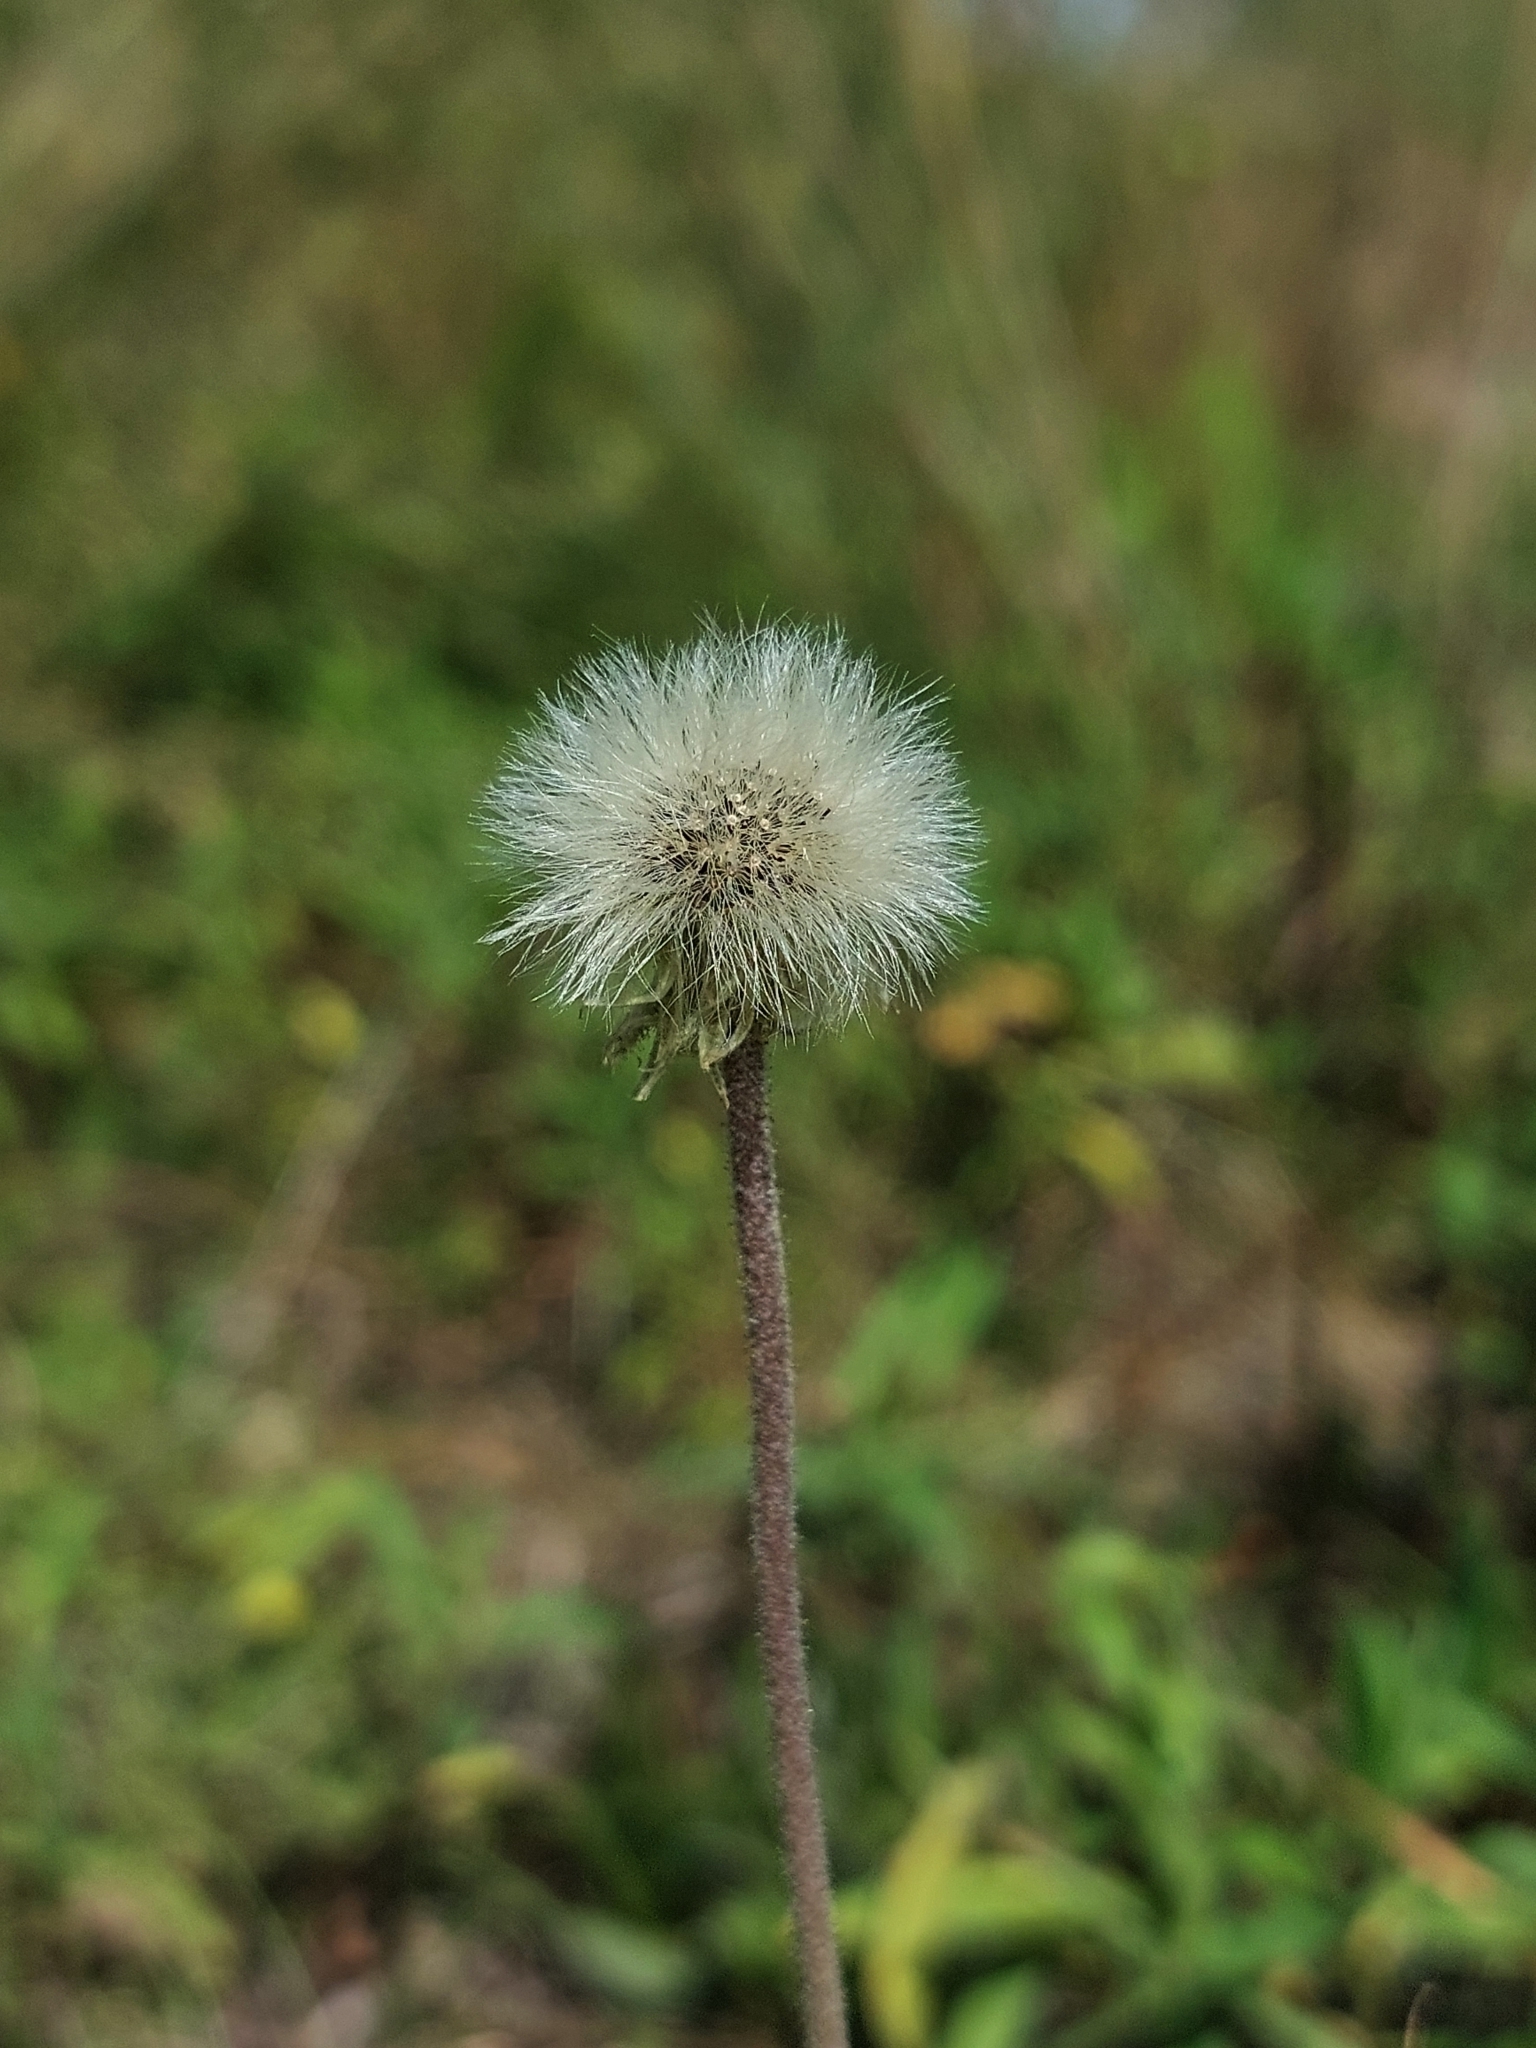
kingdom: Plantae
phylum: Tracheophyta
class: Magnoliopsida
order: Asterales
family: Asteraceae
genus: Pilosella
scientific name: Pilosella officinarum
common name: Mouse-ear hawkweed
